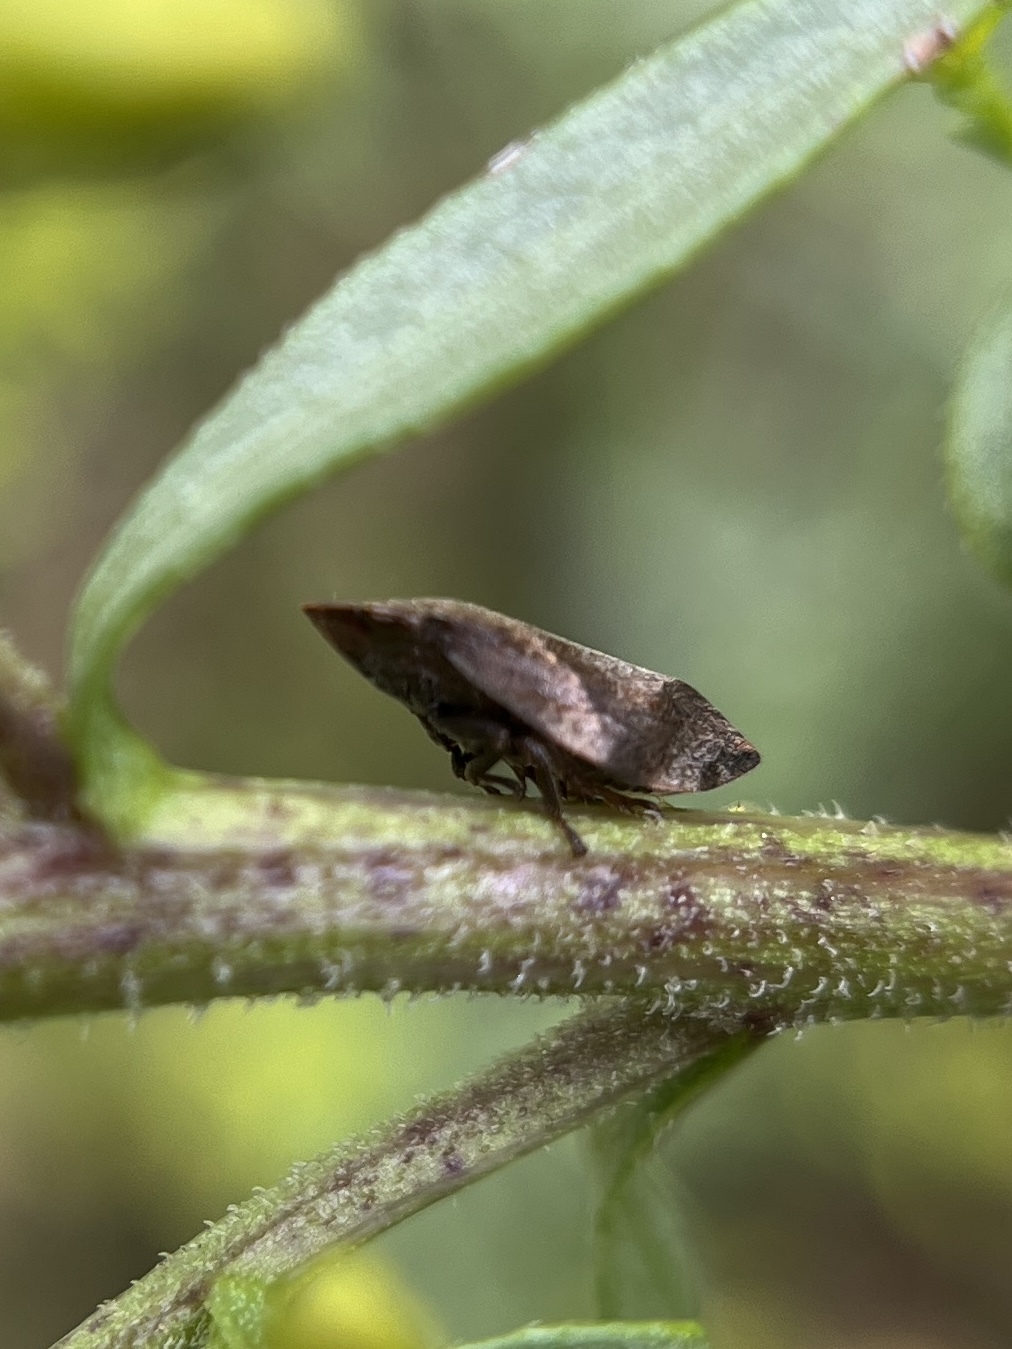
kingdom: Animalia
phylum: Arthropoda
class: Insecta
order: Hemiptera
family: Aphrophoridae
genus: Lepyronia
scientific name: Lepyronia quadrangularis
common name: Diamond-backed spittlebug
